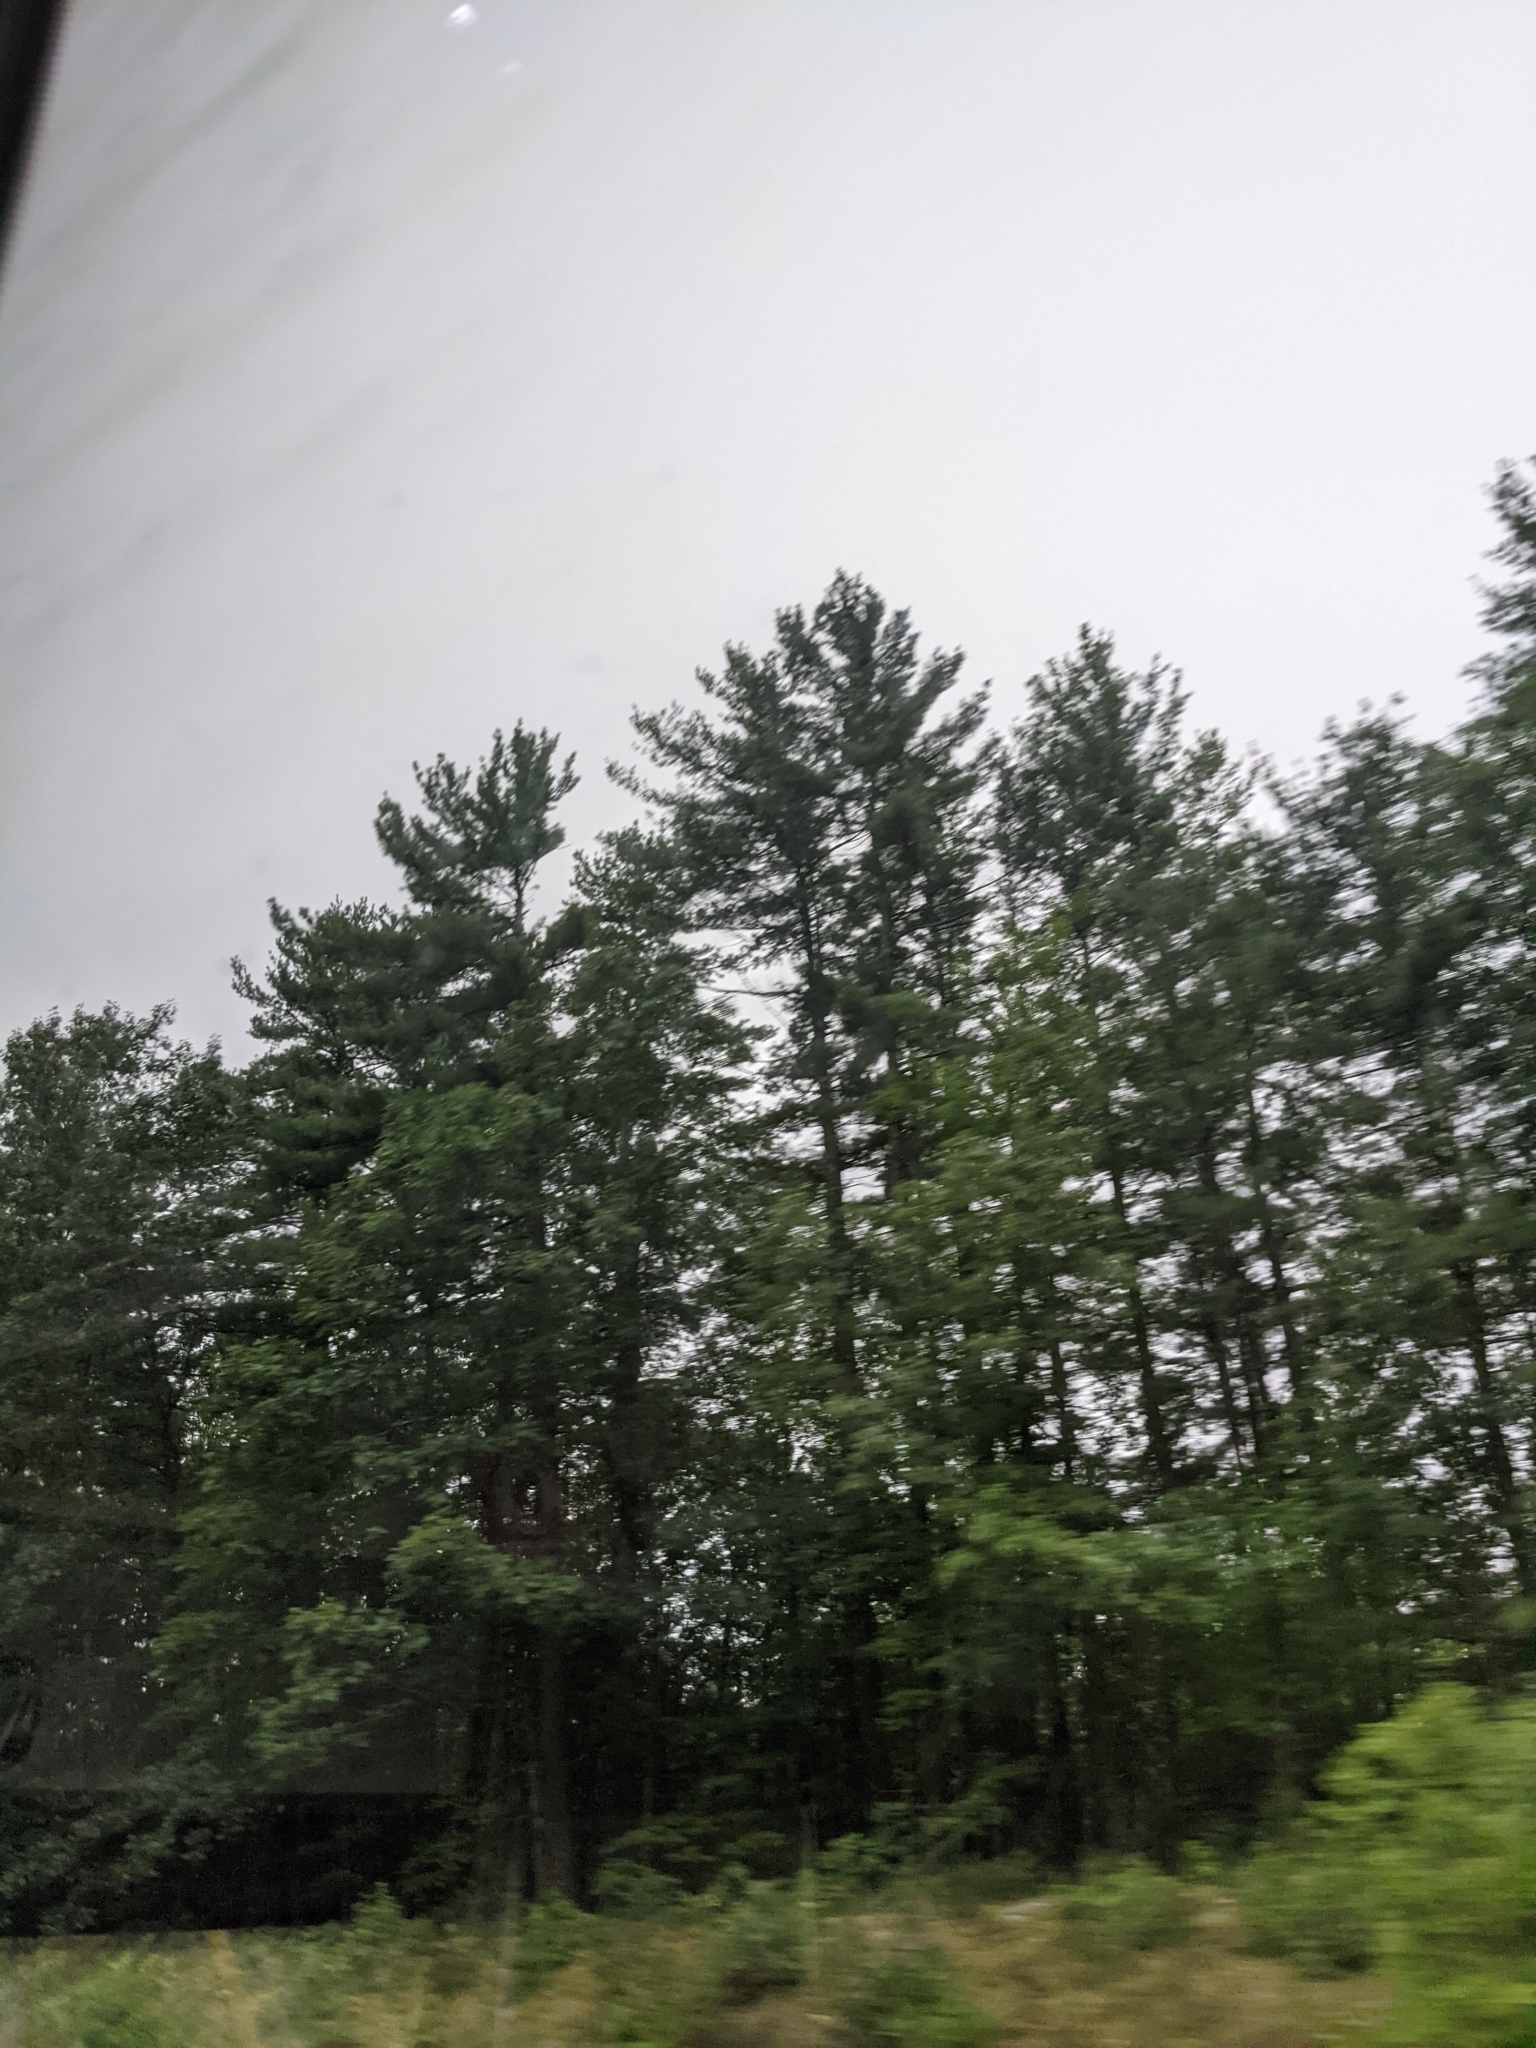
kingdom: Plantae
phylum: Tracheophyta
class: Pinopsida
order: Pinales
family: Pinaceae
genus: Pinus
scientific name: Pinus strobus
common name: Weymouth pine
